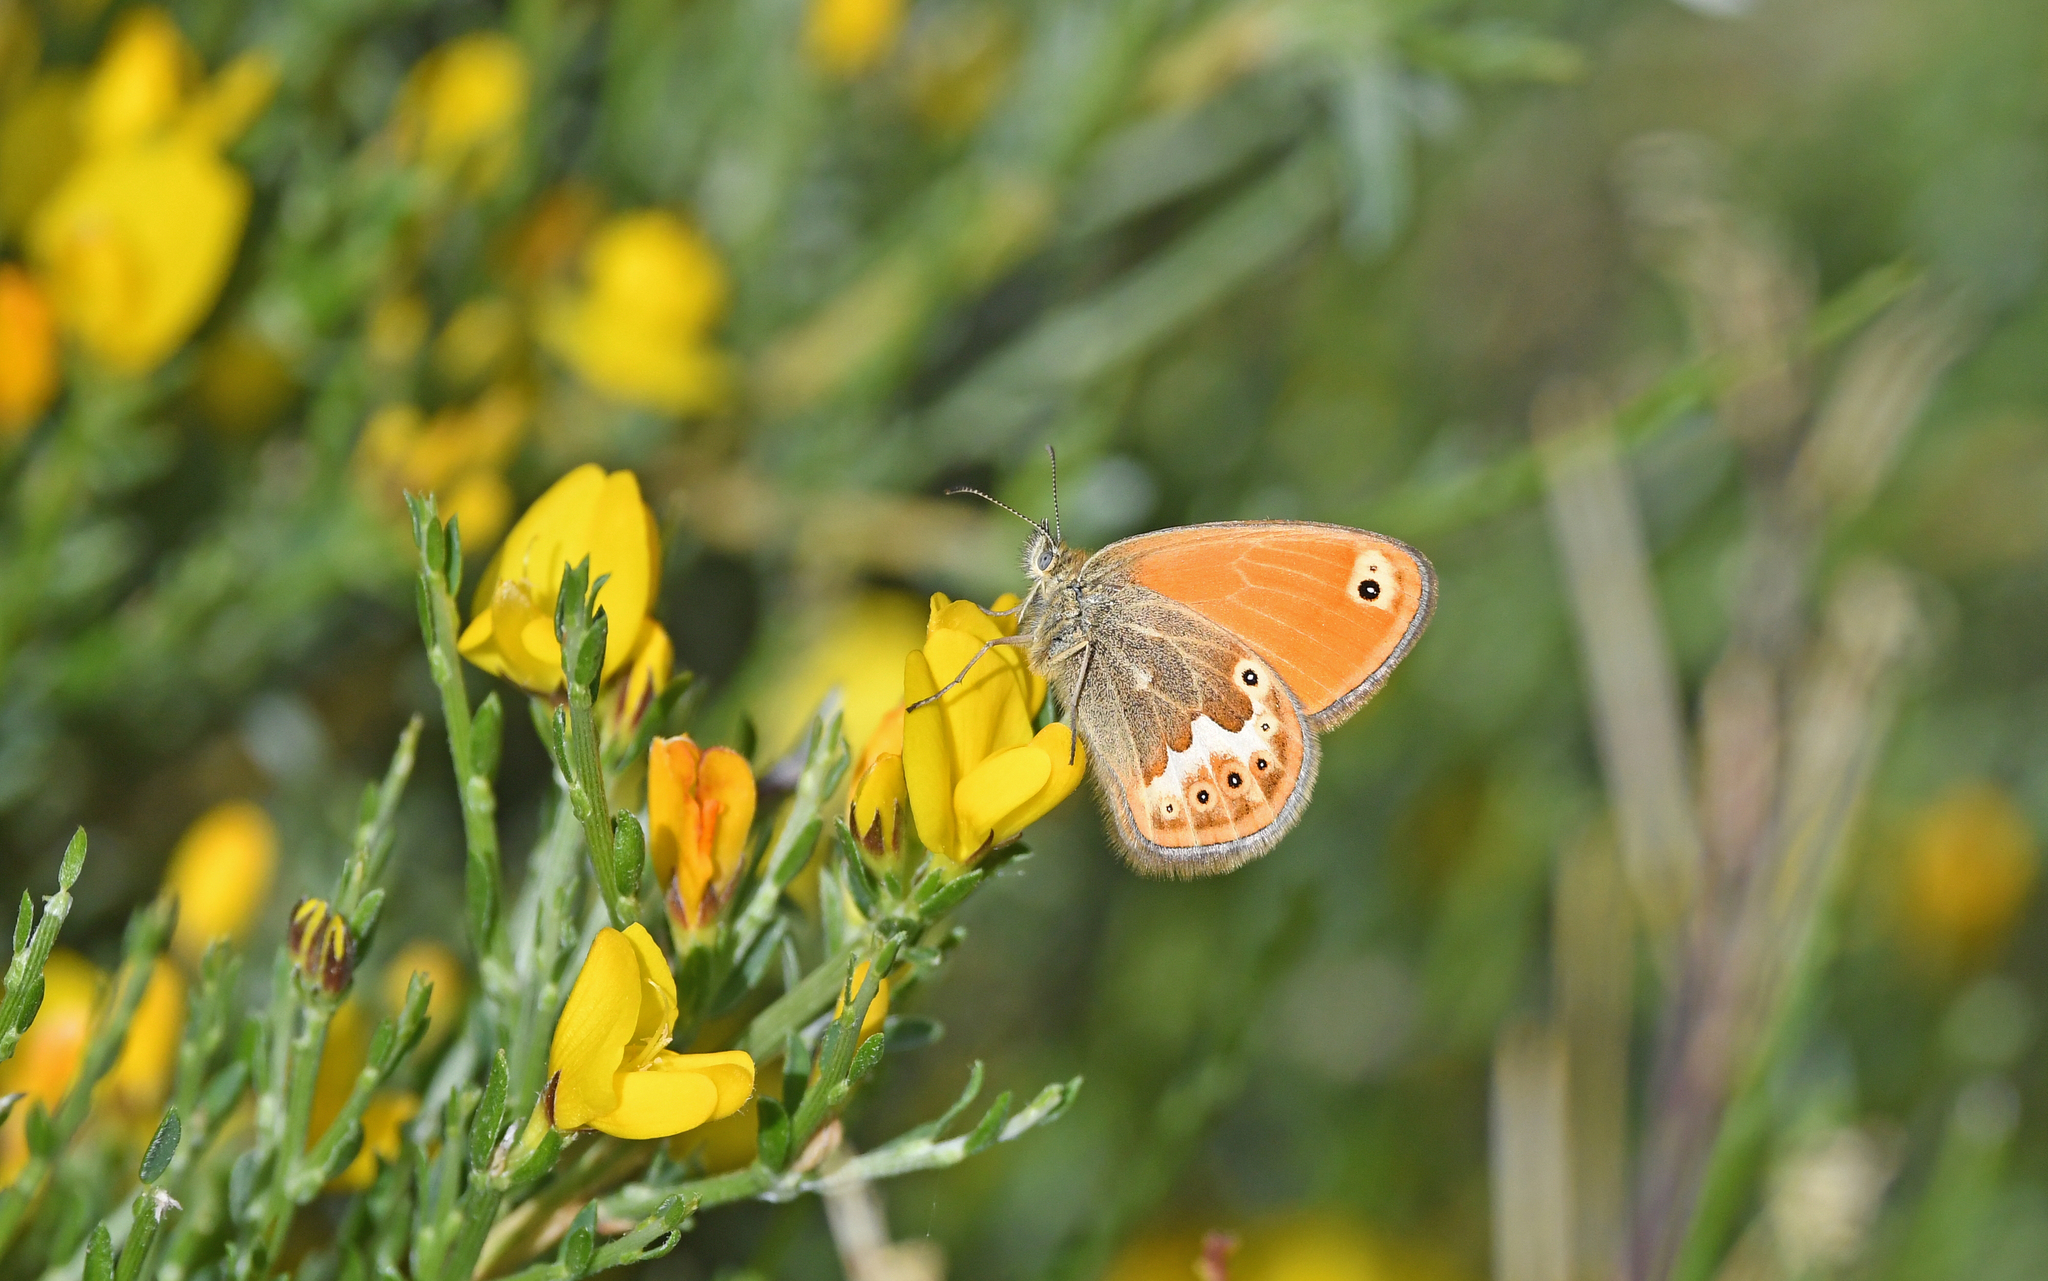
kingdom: Animalia
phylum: Arthropoda
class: Insecta
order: Lepidoptera
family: Nymphalidae
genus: Coenonympha
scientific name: Coenonympha corinna
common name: Corsican heath
